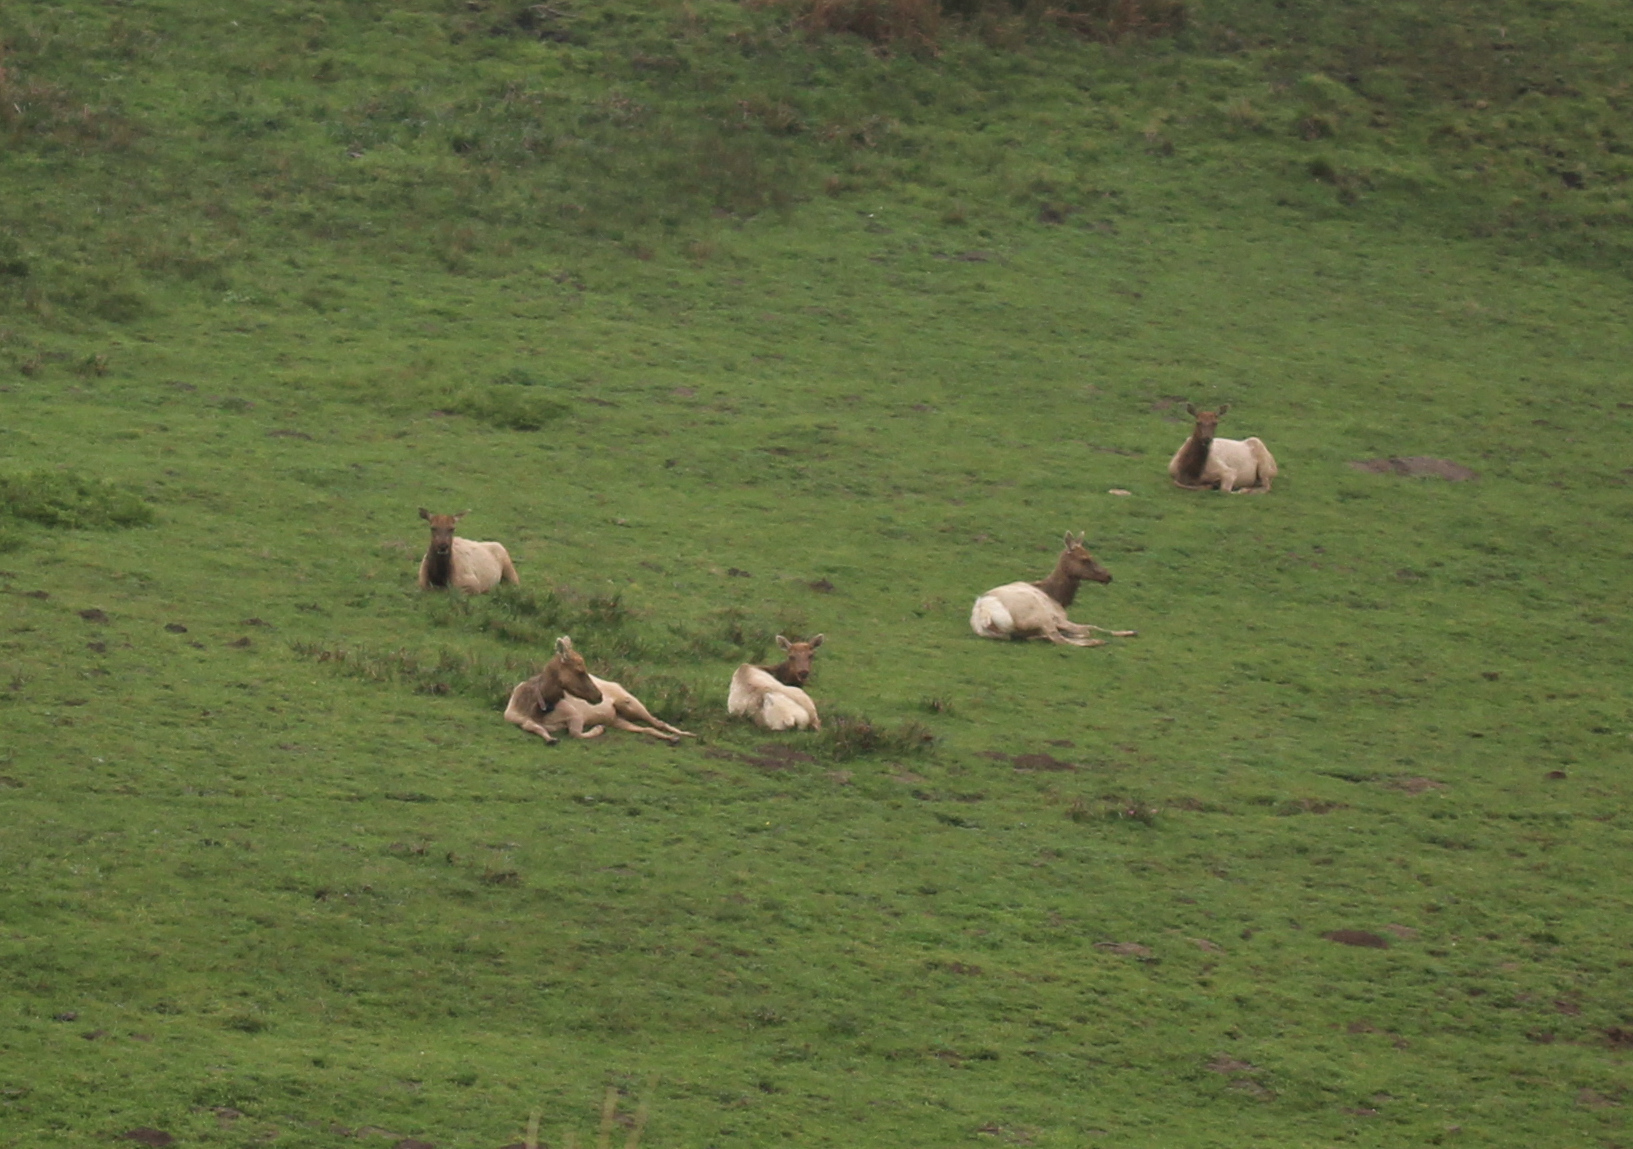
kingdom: Animalia
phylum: Chordata
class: Mammalia
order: Artiodactyla
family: Cervidae
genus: Cervus
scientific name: Cervus elaphus
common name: Red deer
